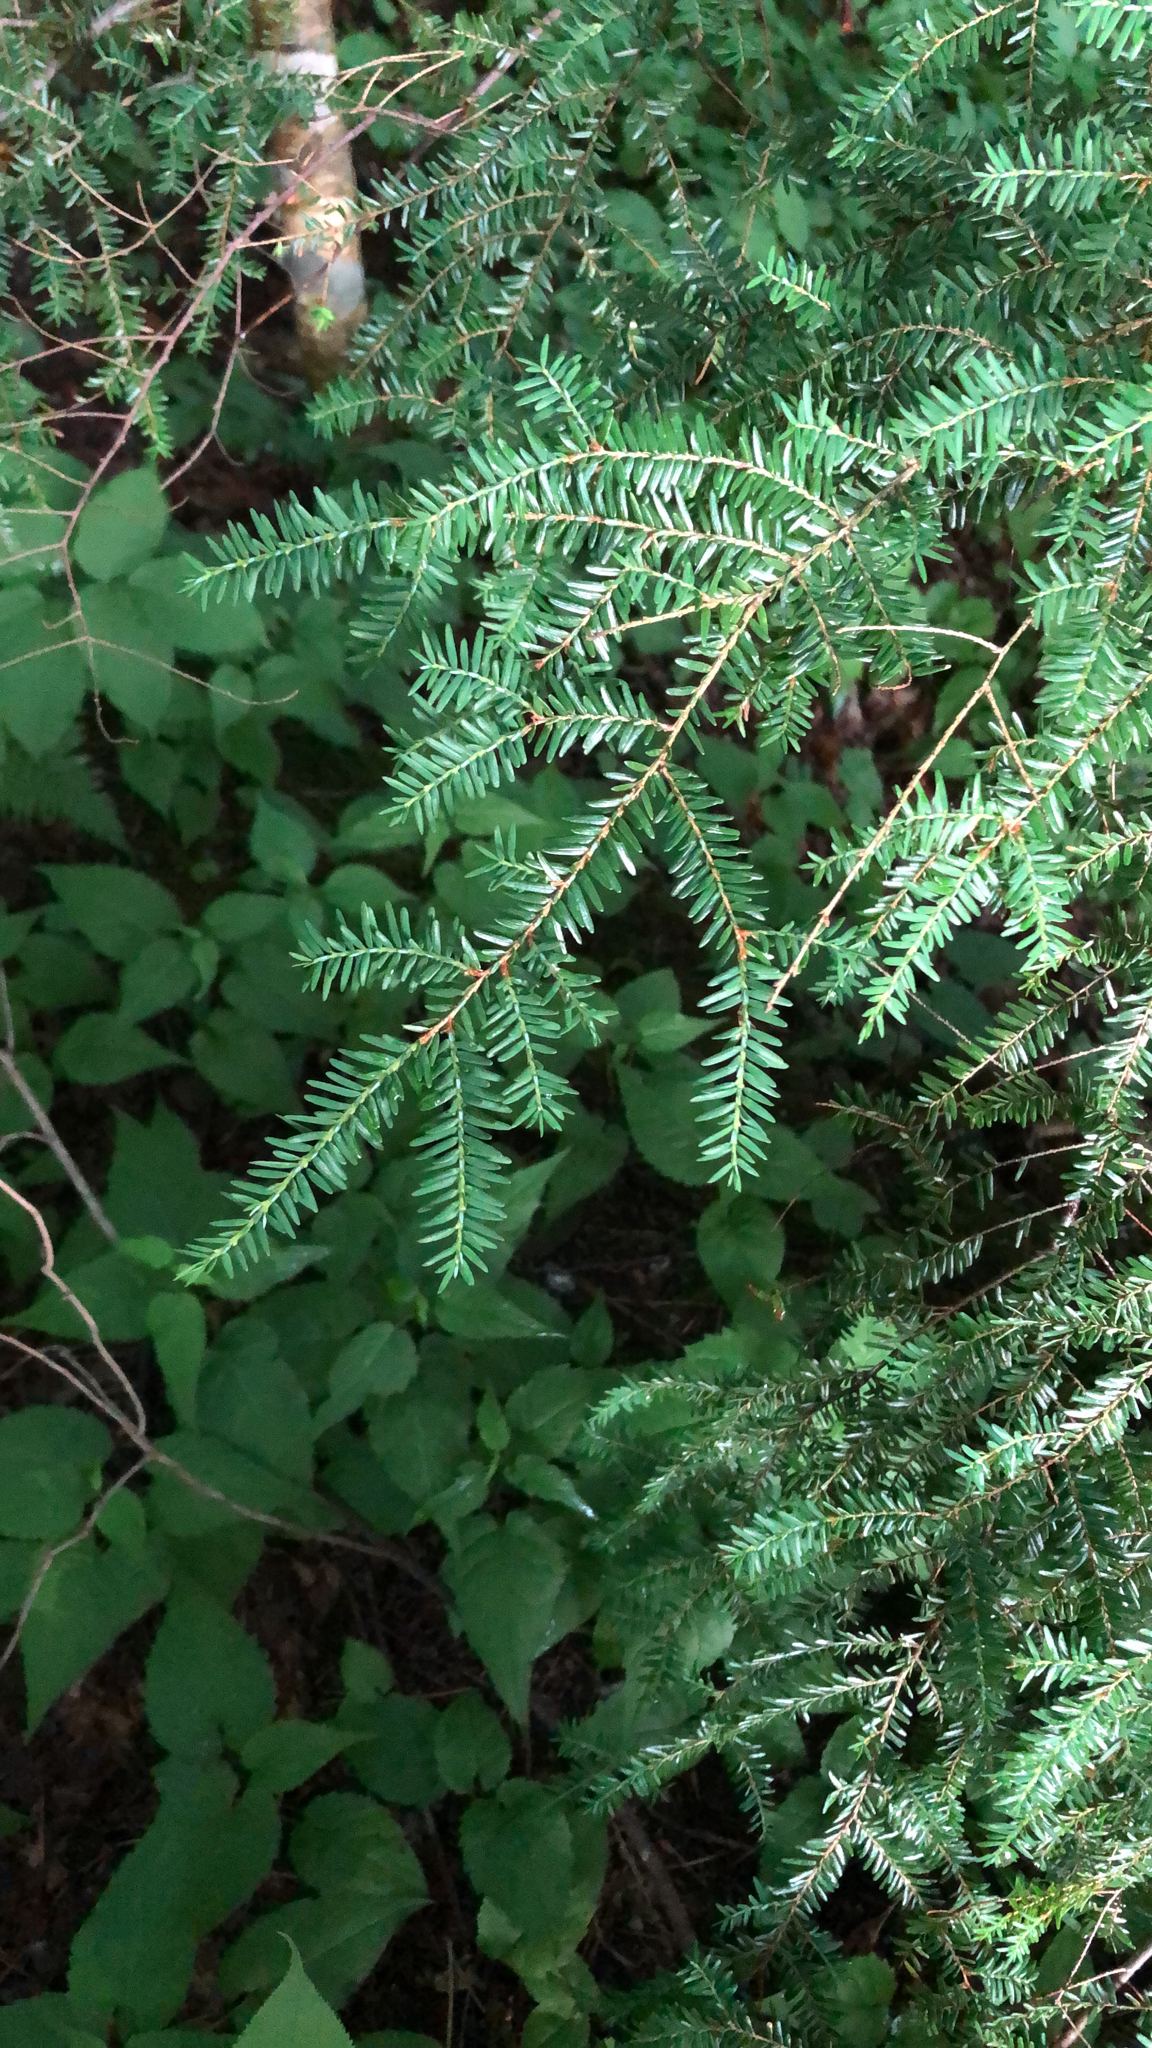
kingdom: Plantae
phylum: Tracheophyta
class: Pinopsida
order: Pinales
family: Pinaceae
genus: Tsuga
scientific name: Tsuga canadensis
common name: Eastern hemlock
